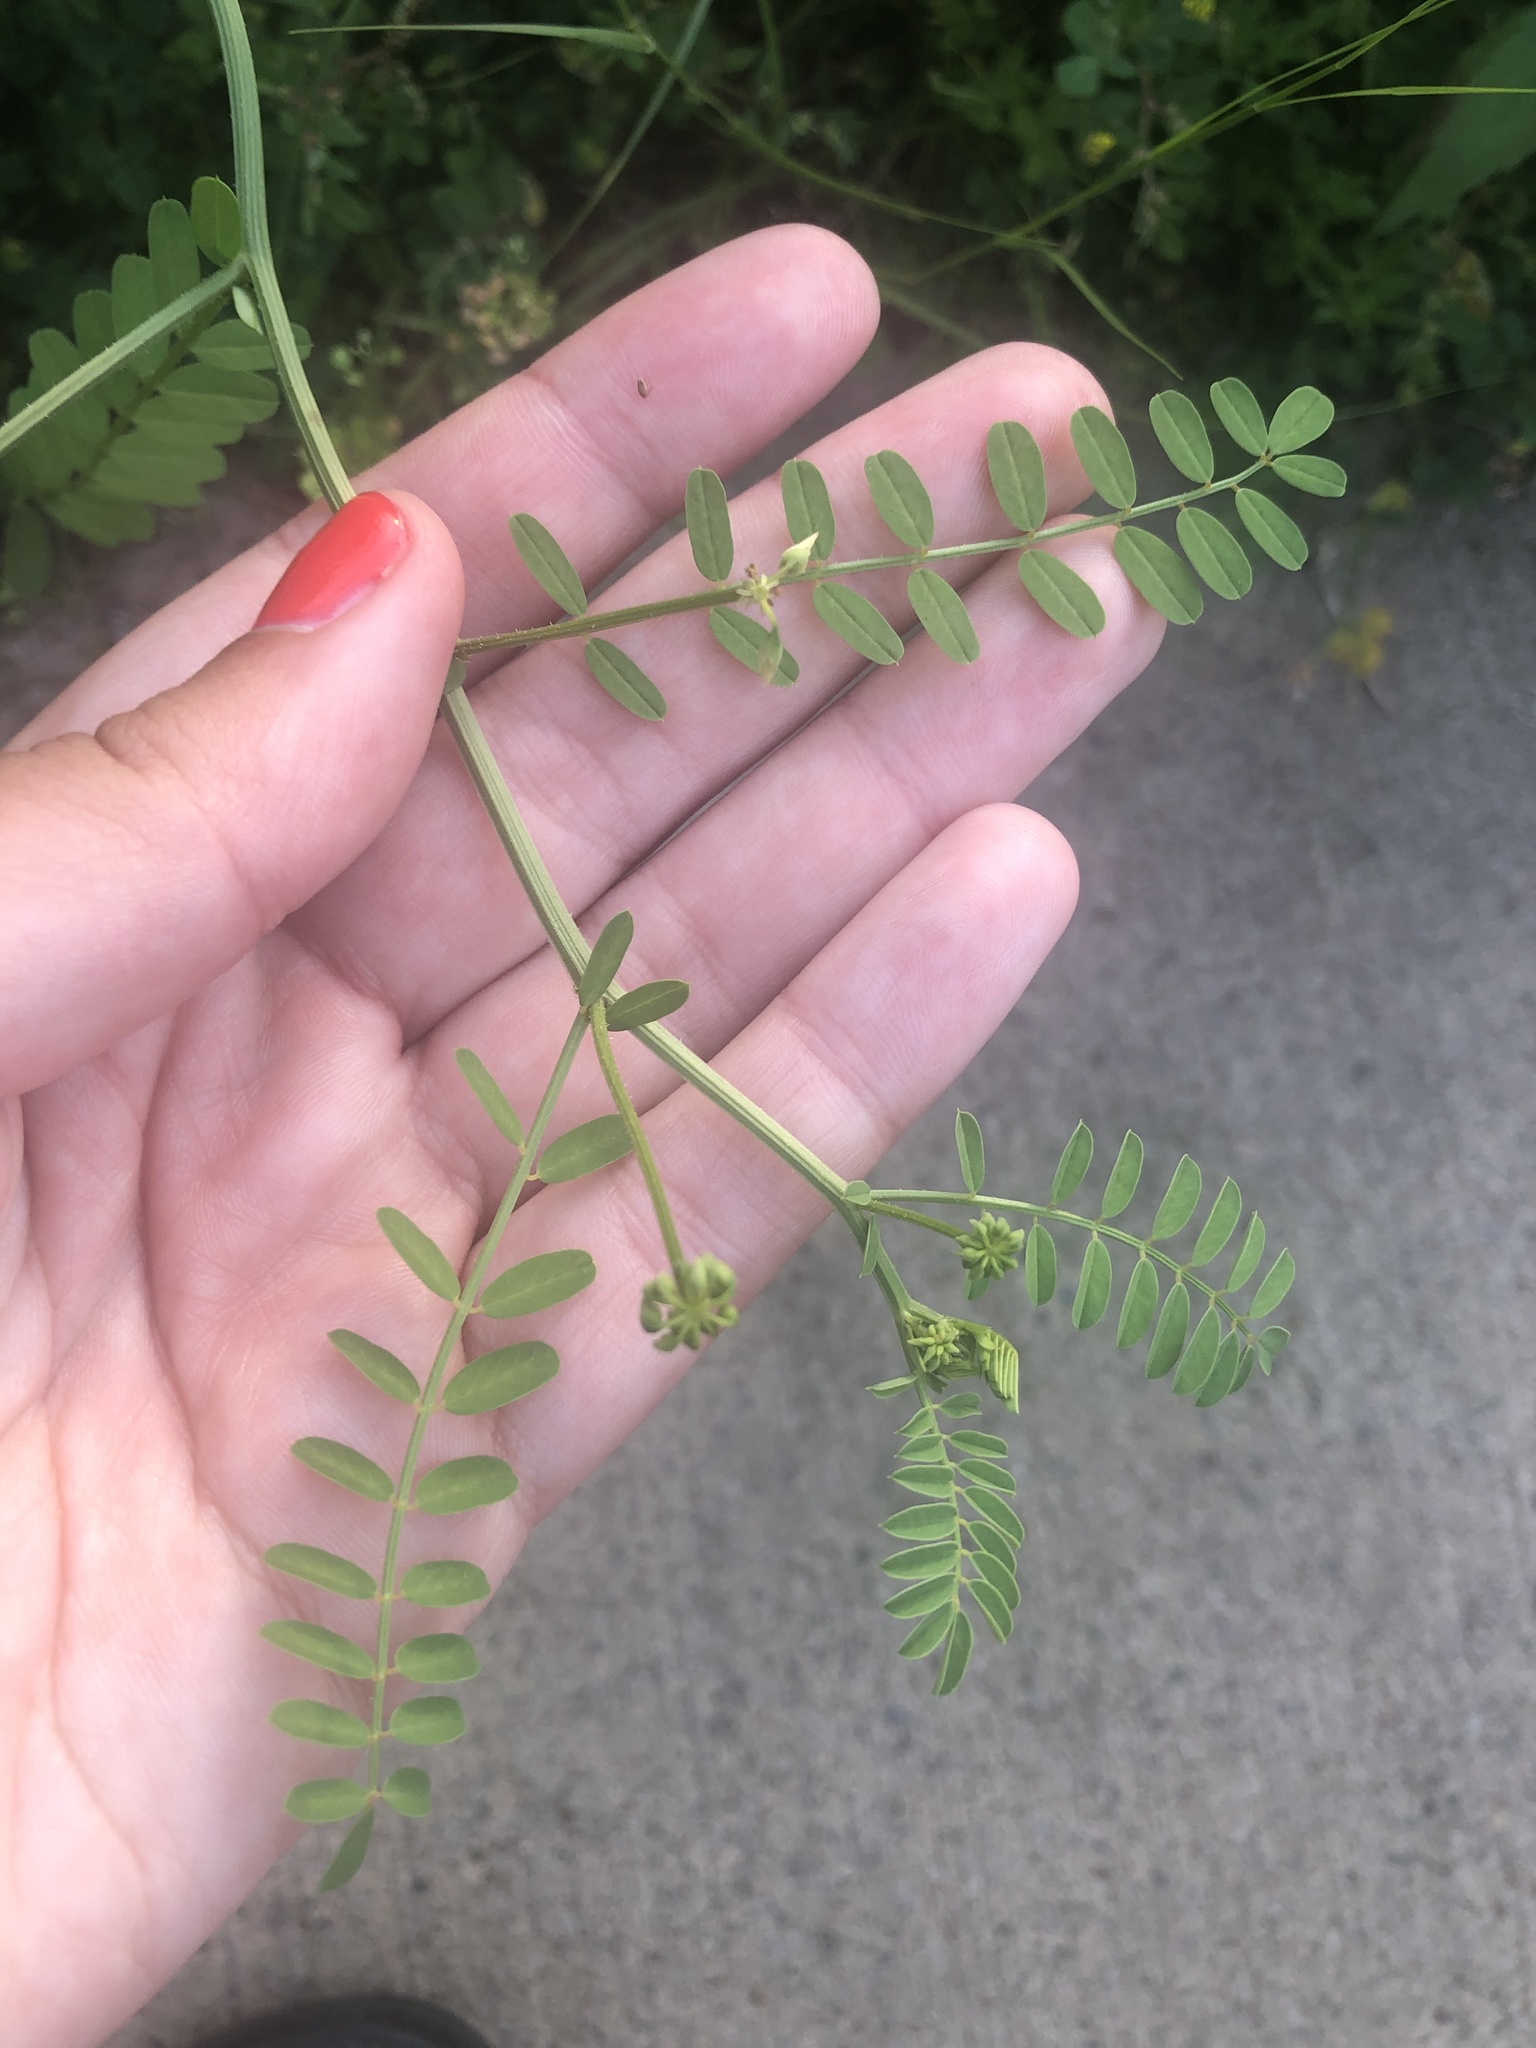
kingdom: Plantae
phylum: Tracheophyta
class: Magnoliopsida
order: Fabales
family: Fabaceae
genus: Coronilla
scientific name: Coronilla varia
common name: Crownvetch
